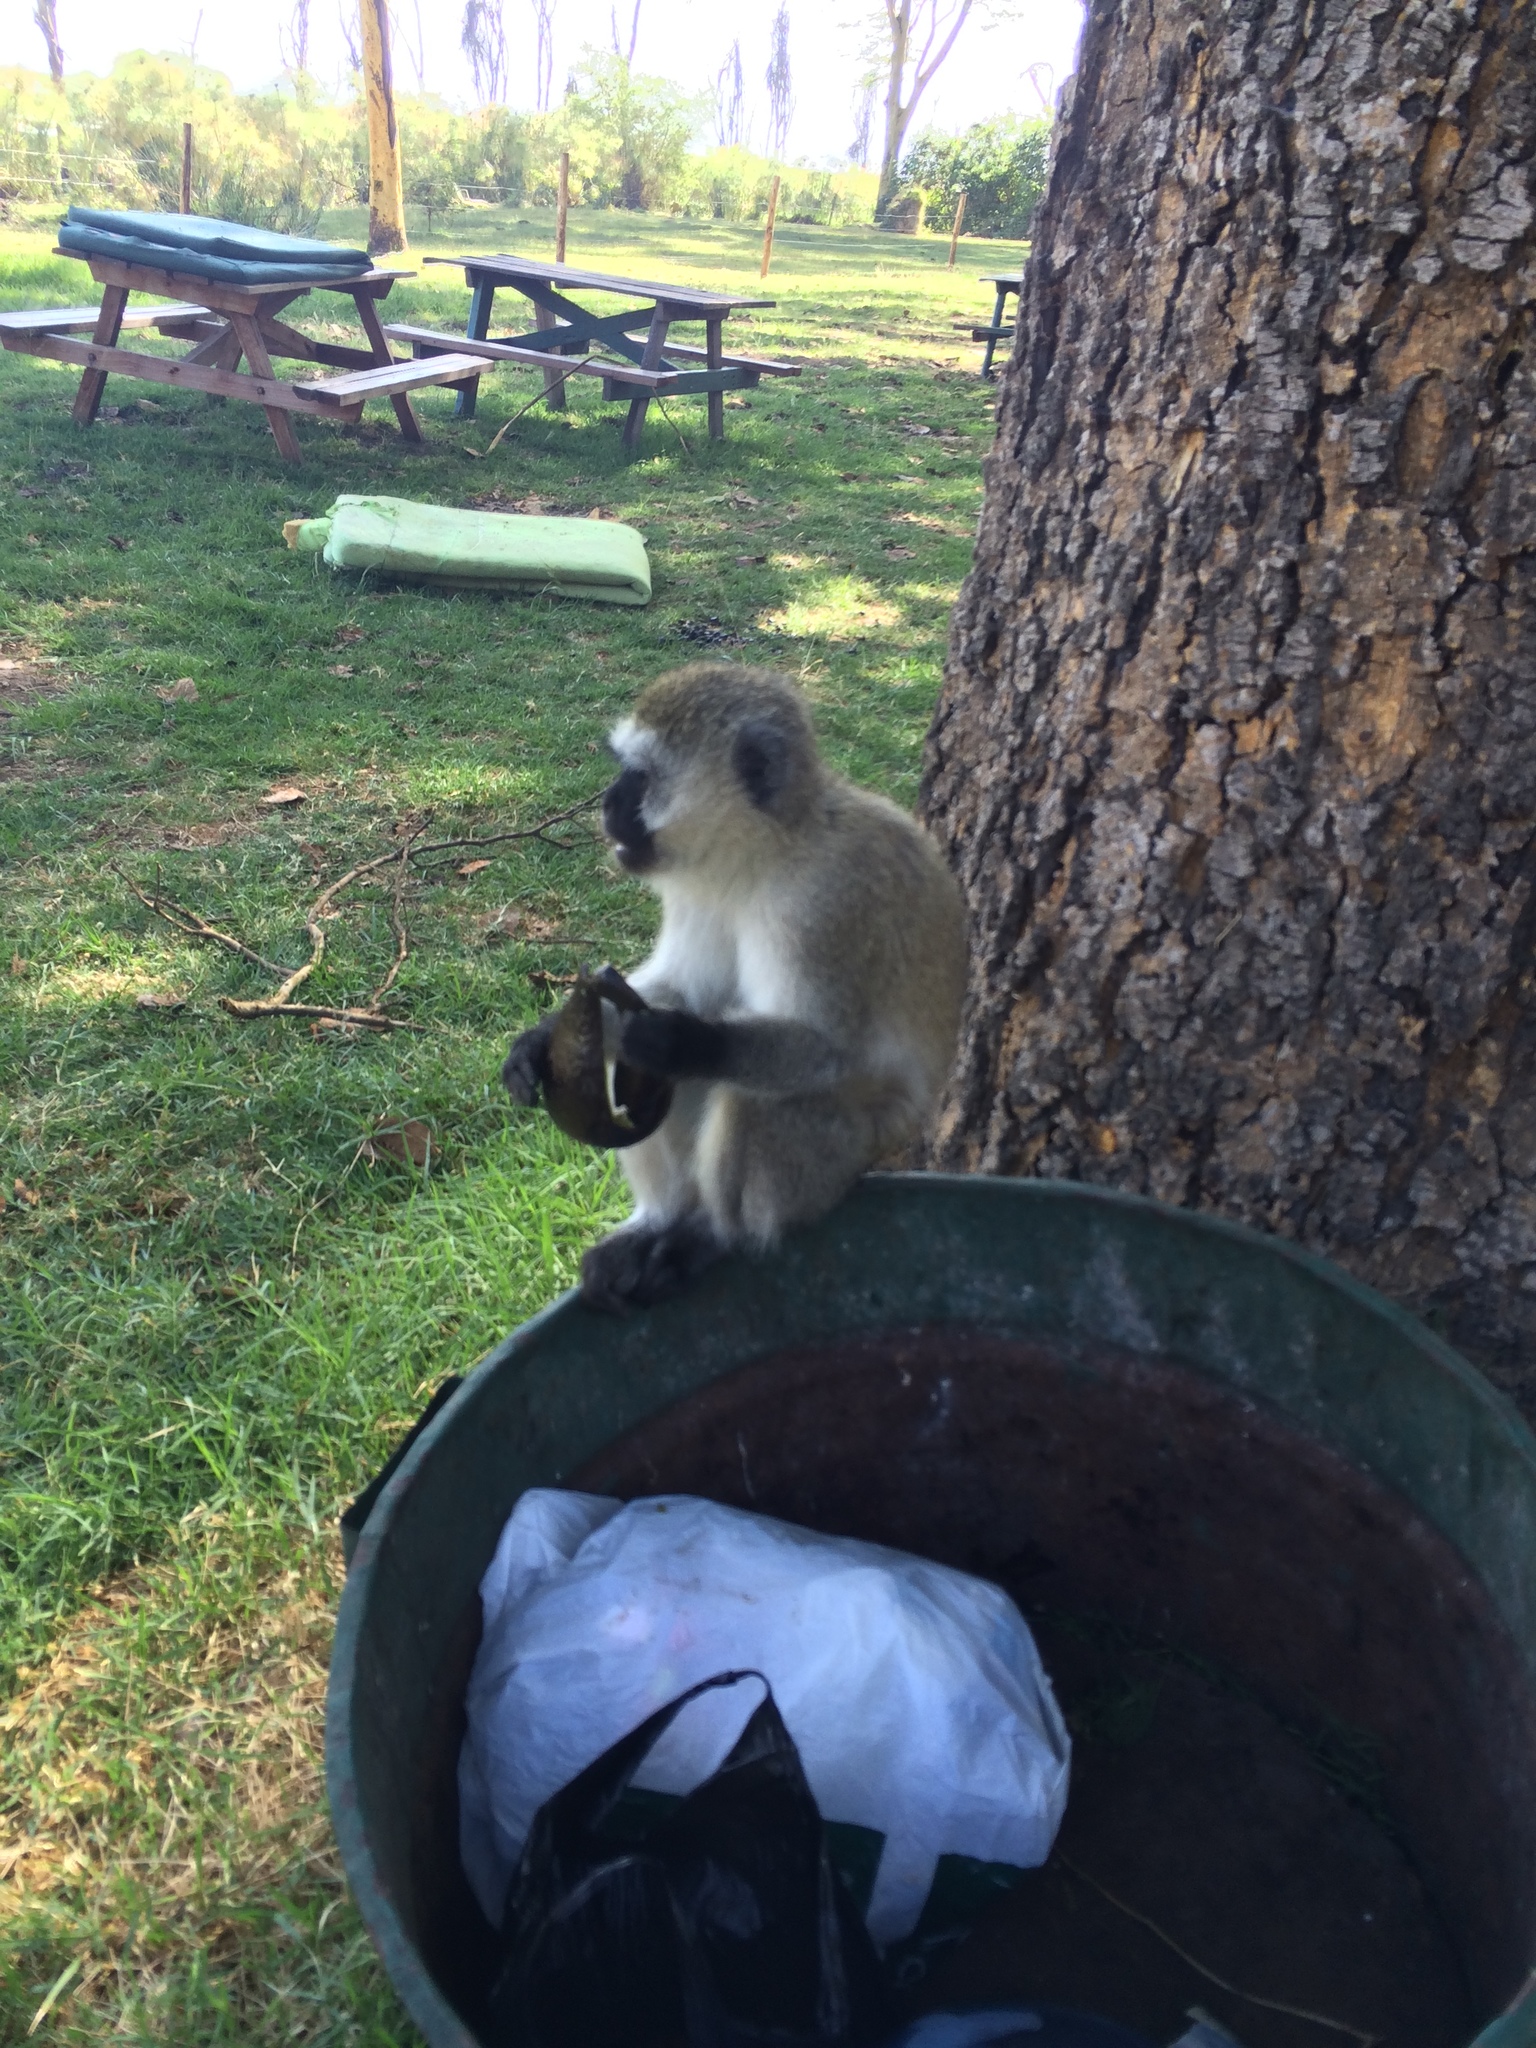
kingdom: Animalia
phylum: Chordata
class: Mammalia
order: Primates
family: Cercopithecidae
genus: Chlorocebus
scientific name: Chlorocebus pygerythrus
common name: Vervet monkey
